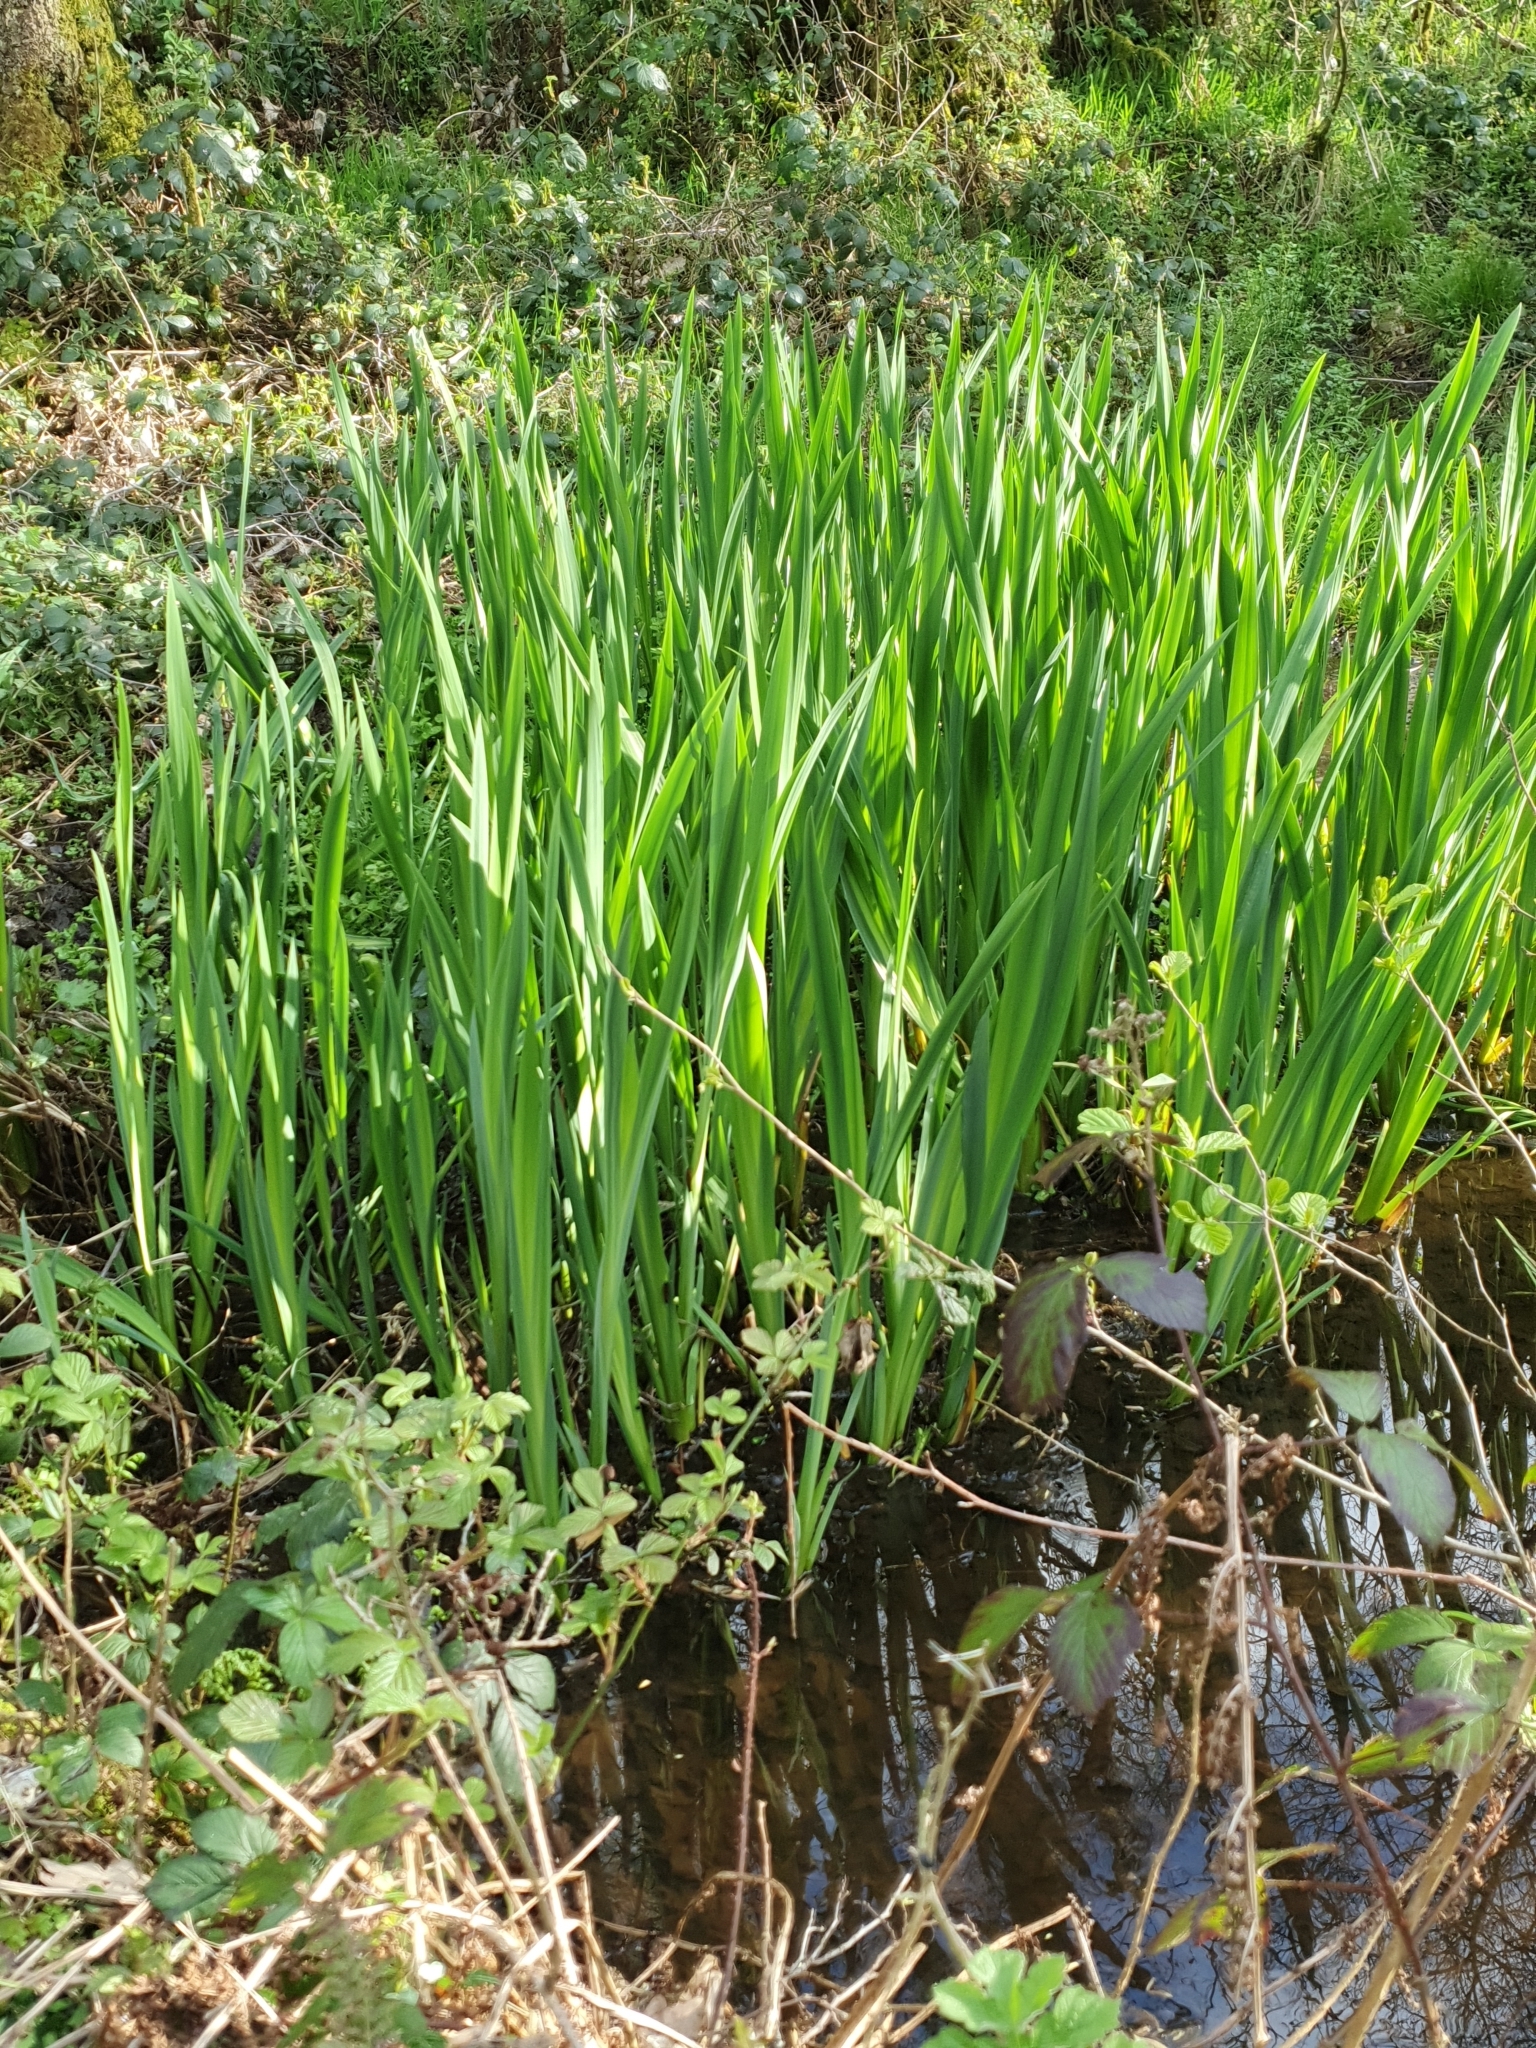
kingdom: Plantae
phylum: Tracheophyta
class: Liliopsida
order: Asparagales
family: Iridaceae
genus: Iris
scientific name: Iris pseudacorus
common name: Yellow flag
